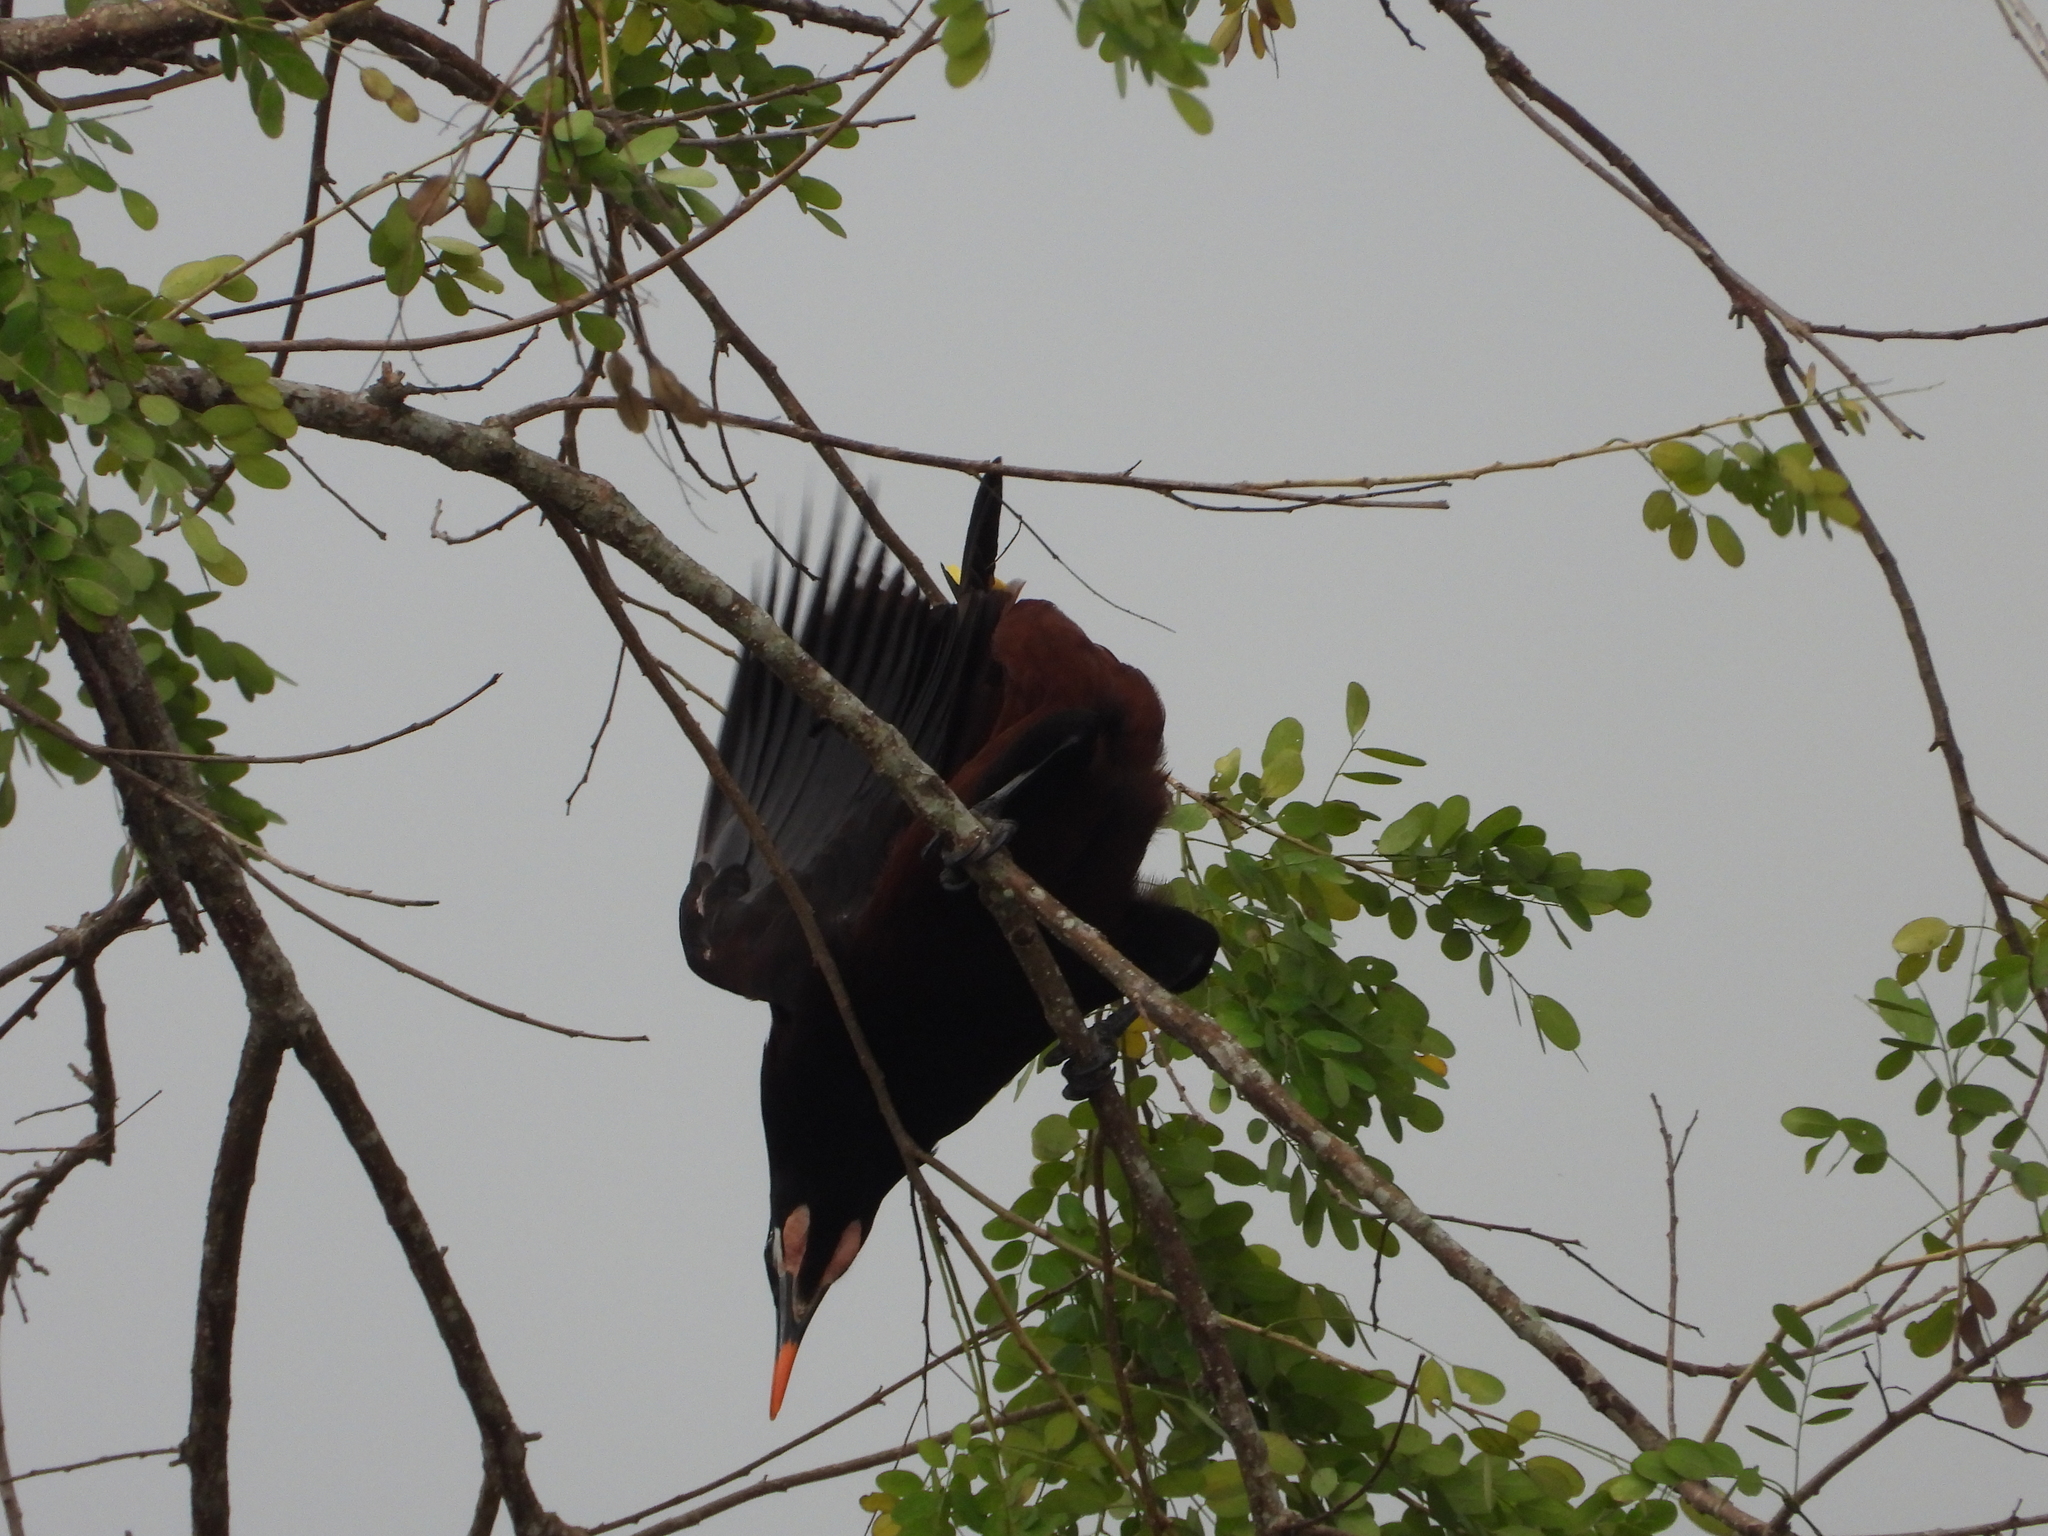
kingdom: Animalia
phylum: Chordata
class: Aves
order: Passeriformes
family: Icteridae
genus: Psarocolius
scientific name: Psarocolius montezuma
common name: Montezuma oropendola
